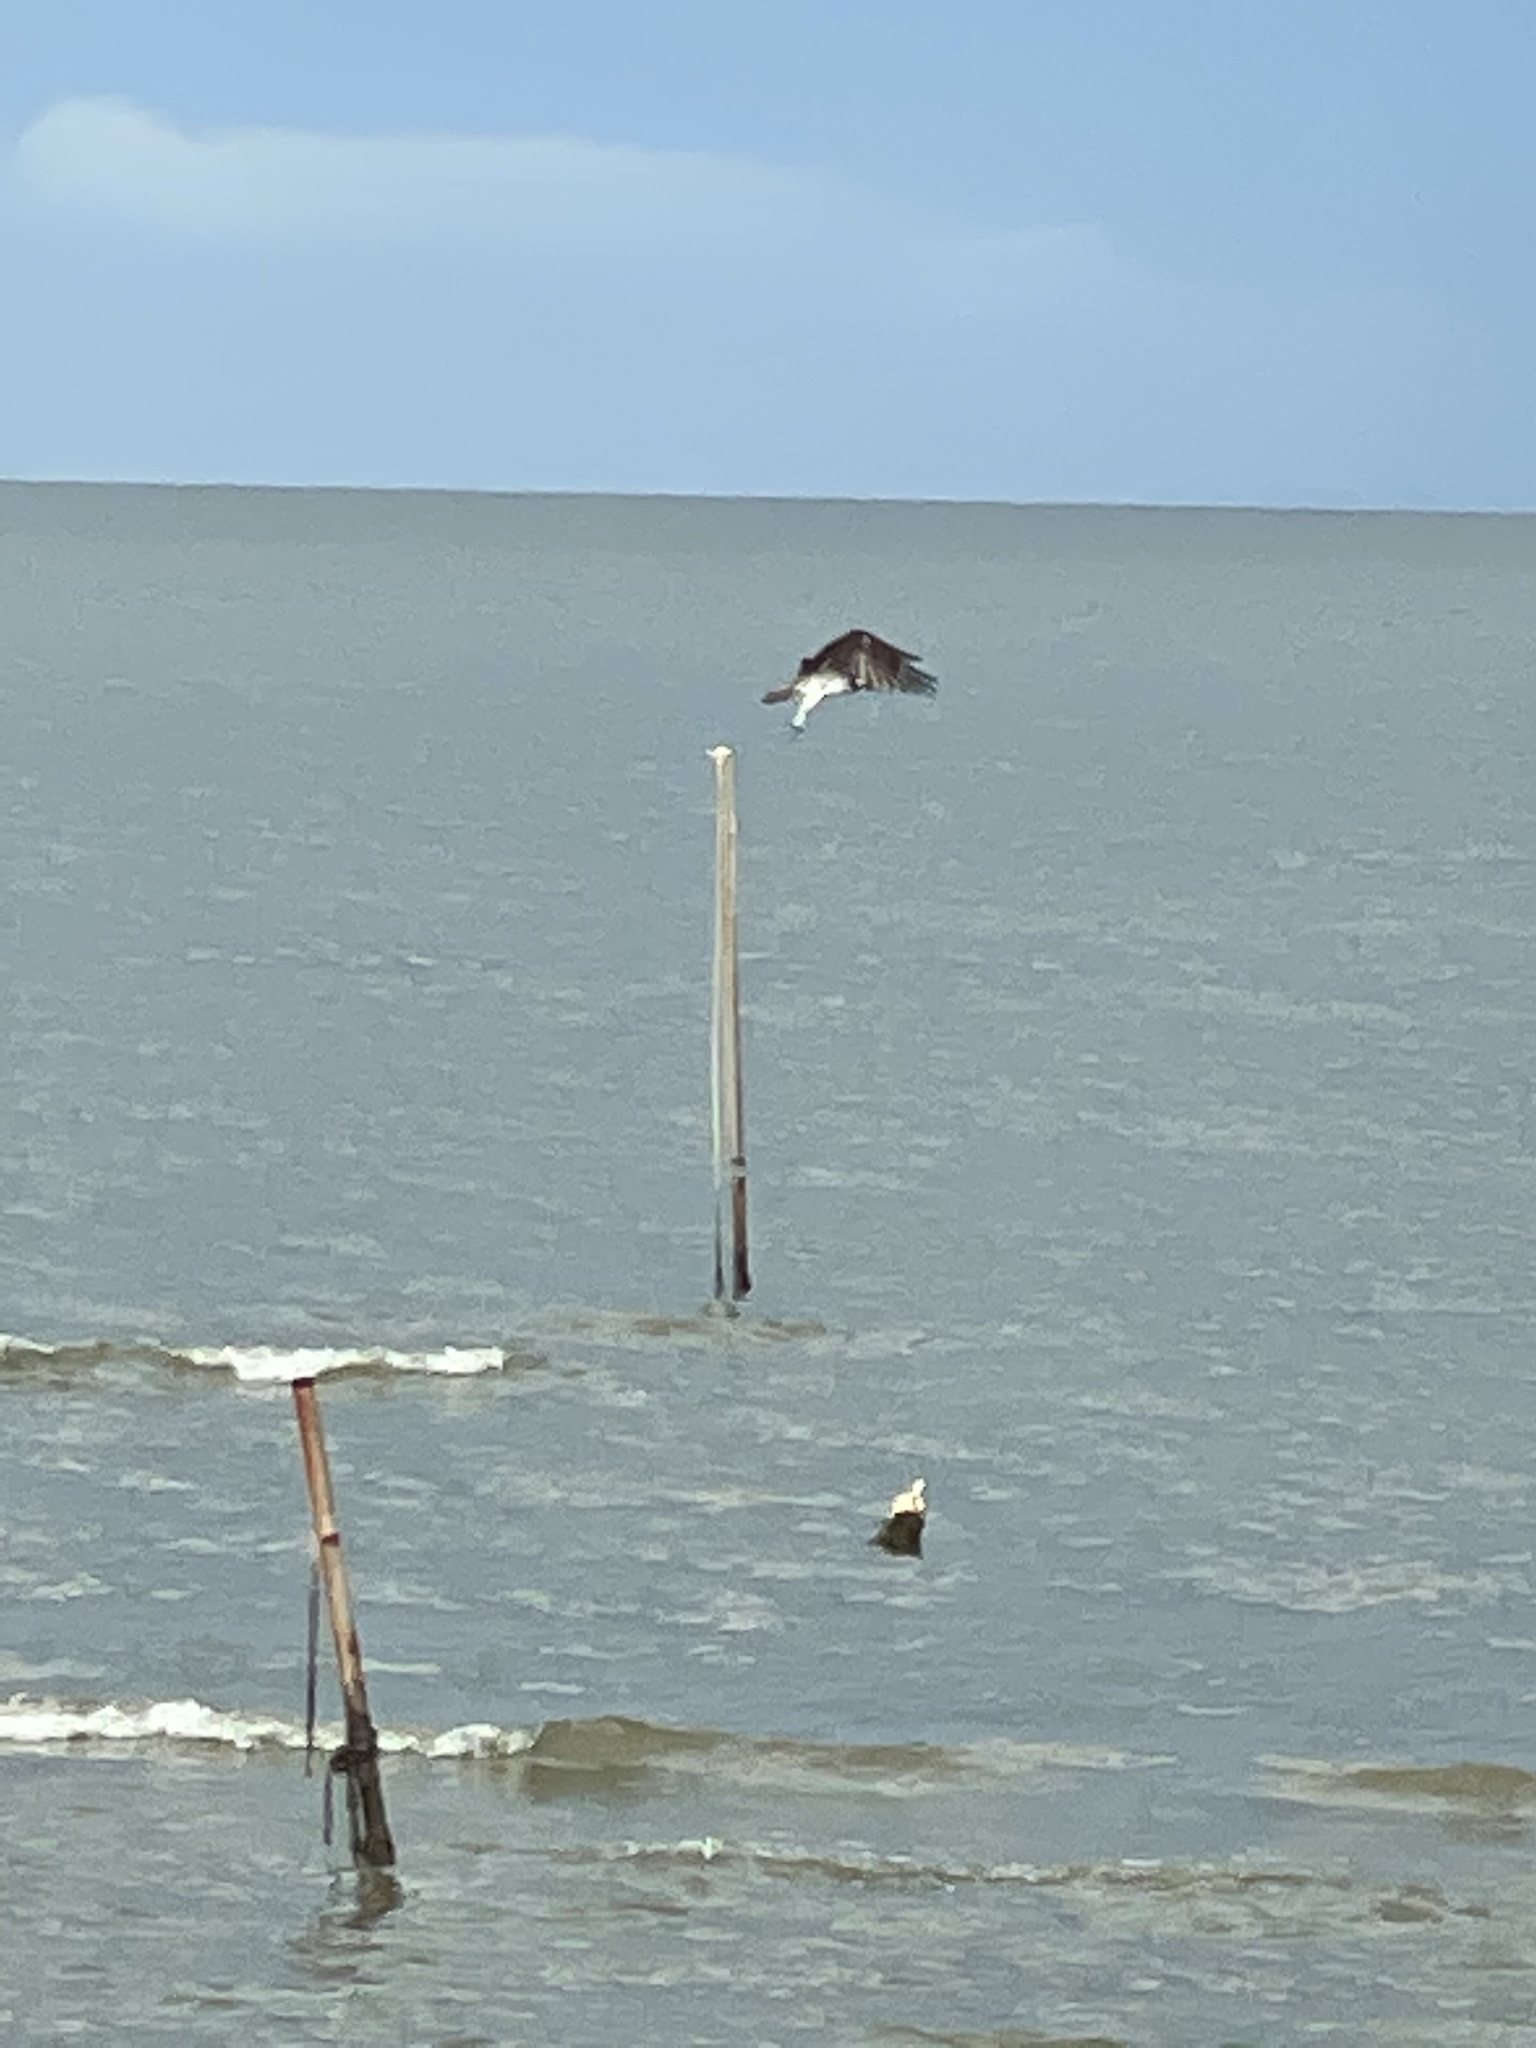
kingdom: Animalia
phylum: Chordata
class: Aves
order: Accipitriformes
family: Pandionidae
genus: Pandion
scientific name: Pandion haliaetus
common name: Osprey
